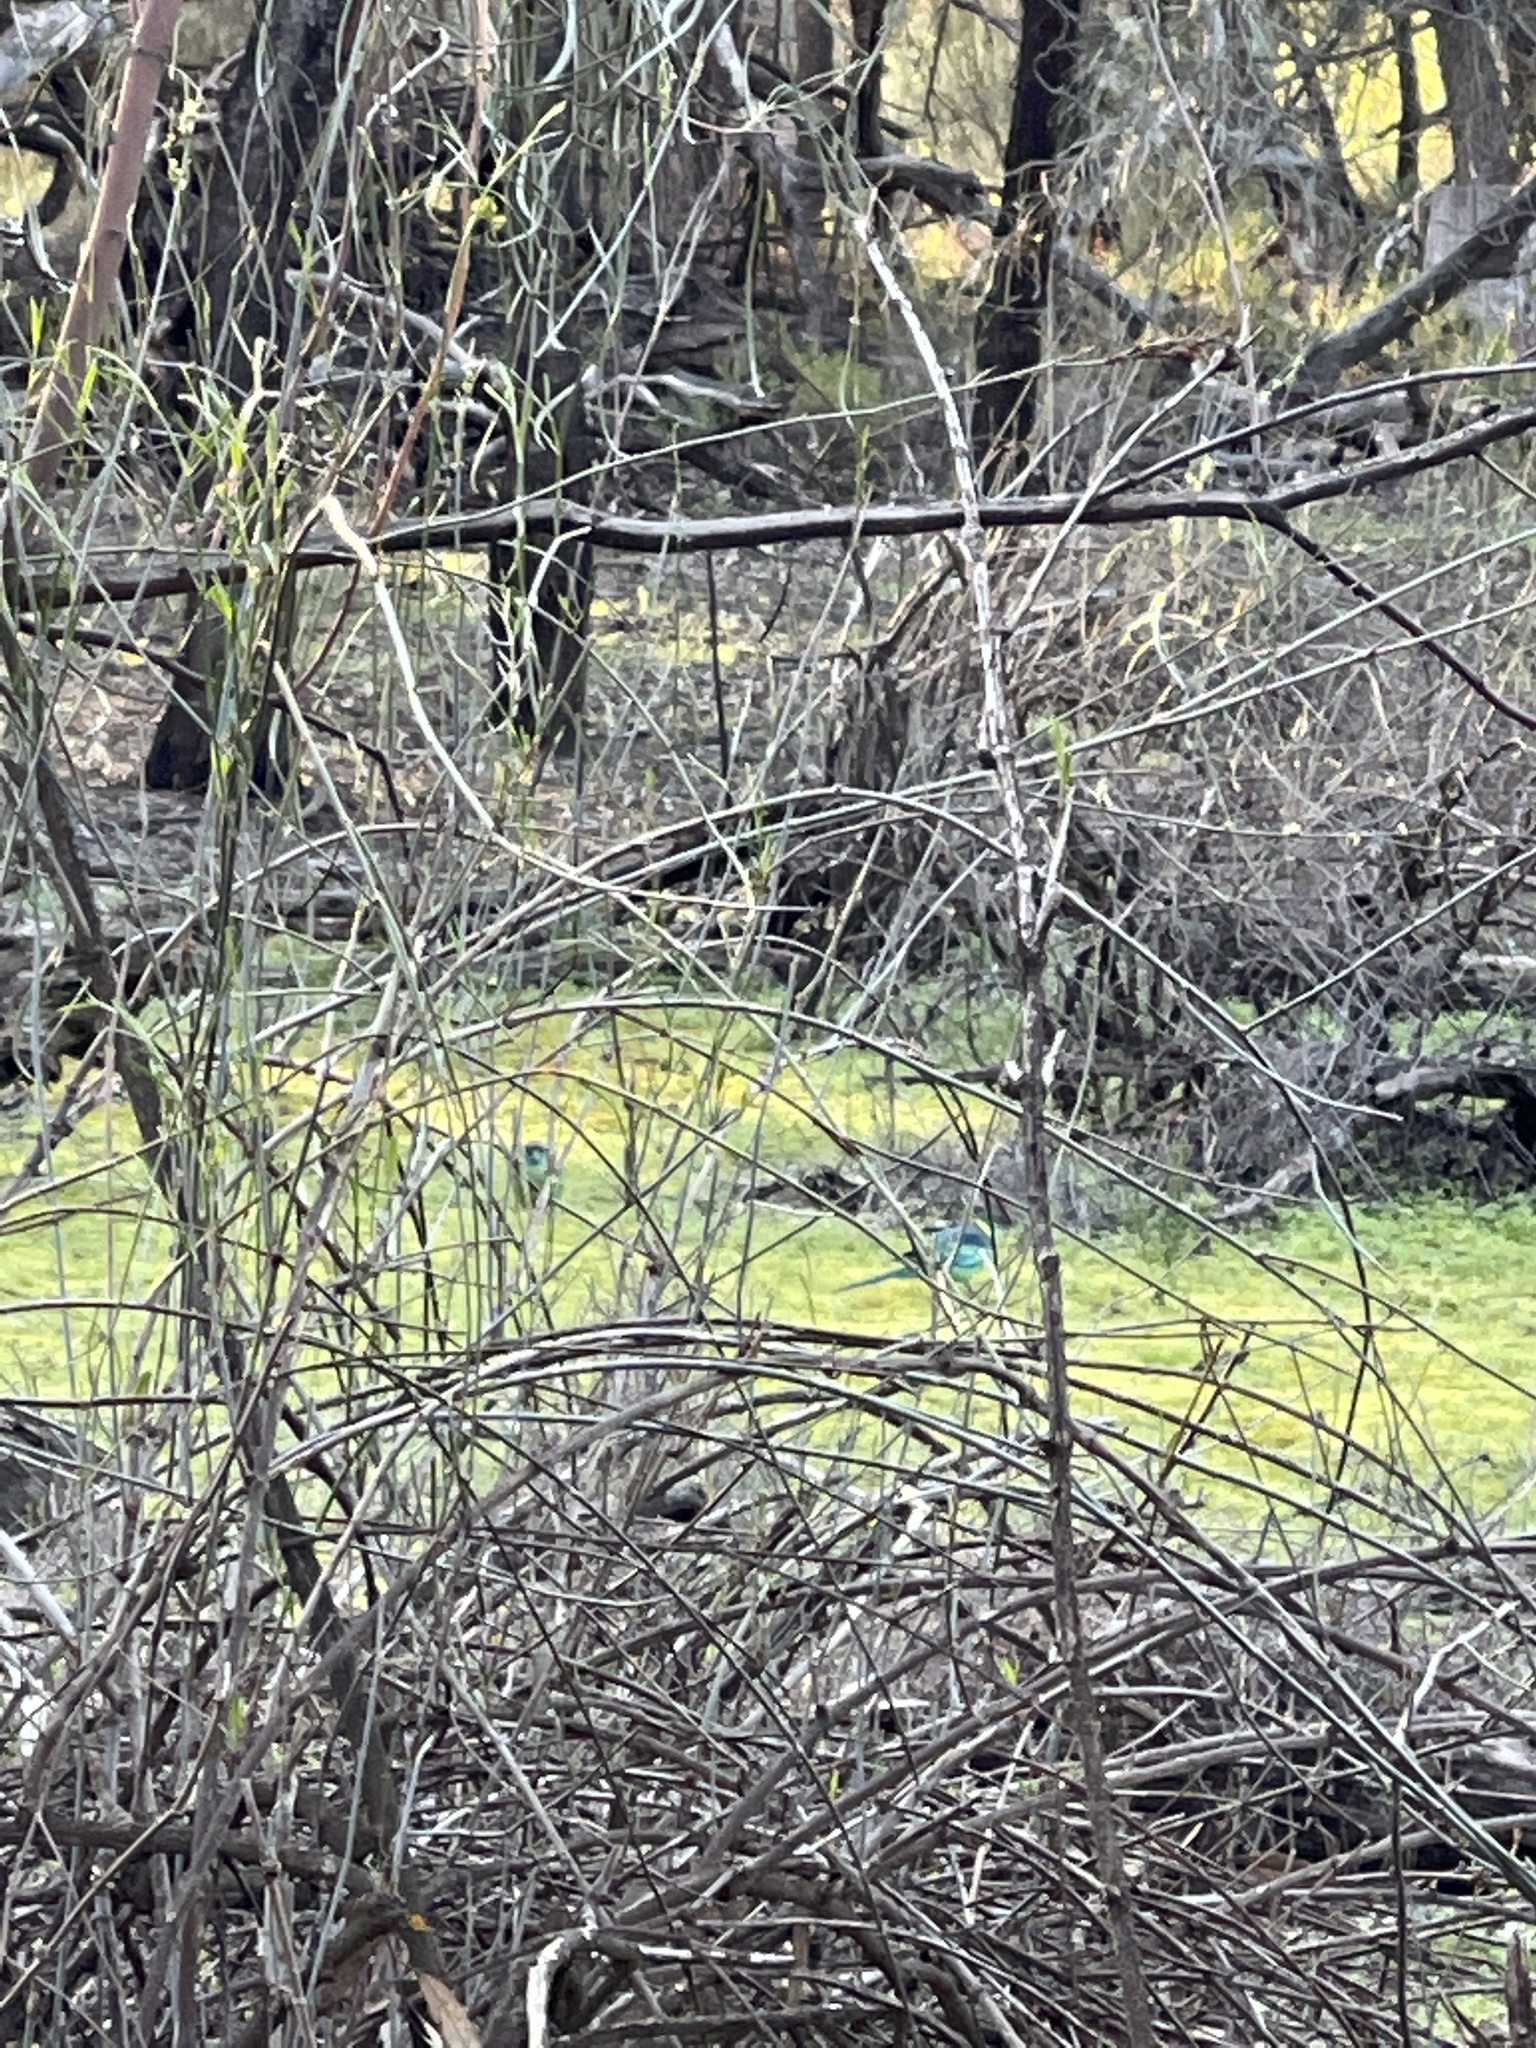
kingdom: Animalia
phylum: Chordata
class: Aves
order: Psittaciformes
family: Psittacidae
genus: Barnardius
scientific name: Barnardius zonarius
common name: Australian ringneck
